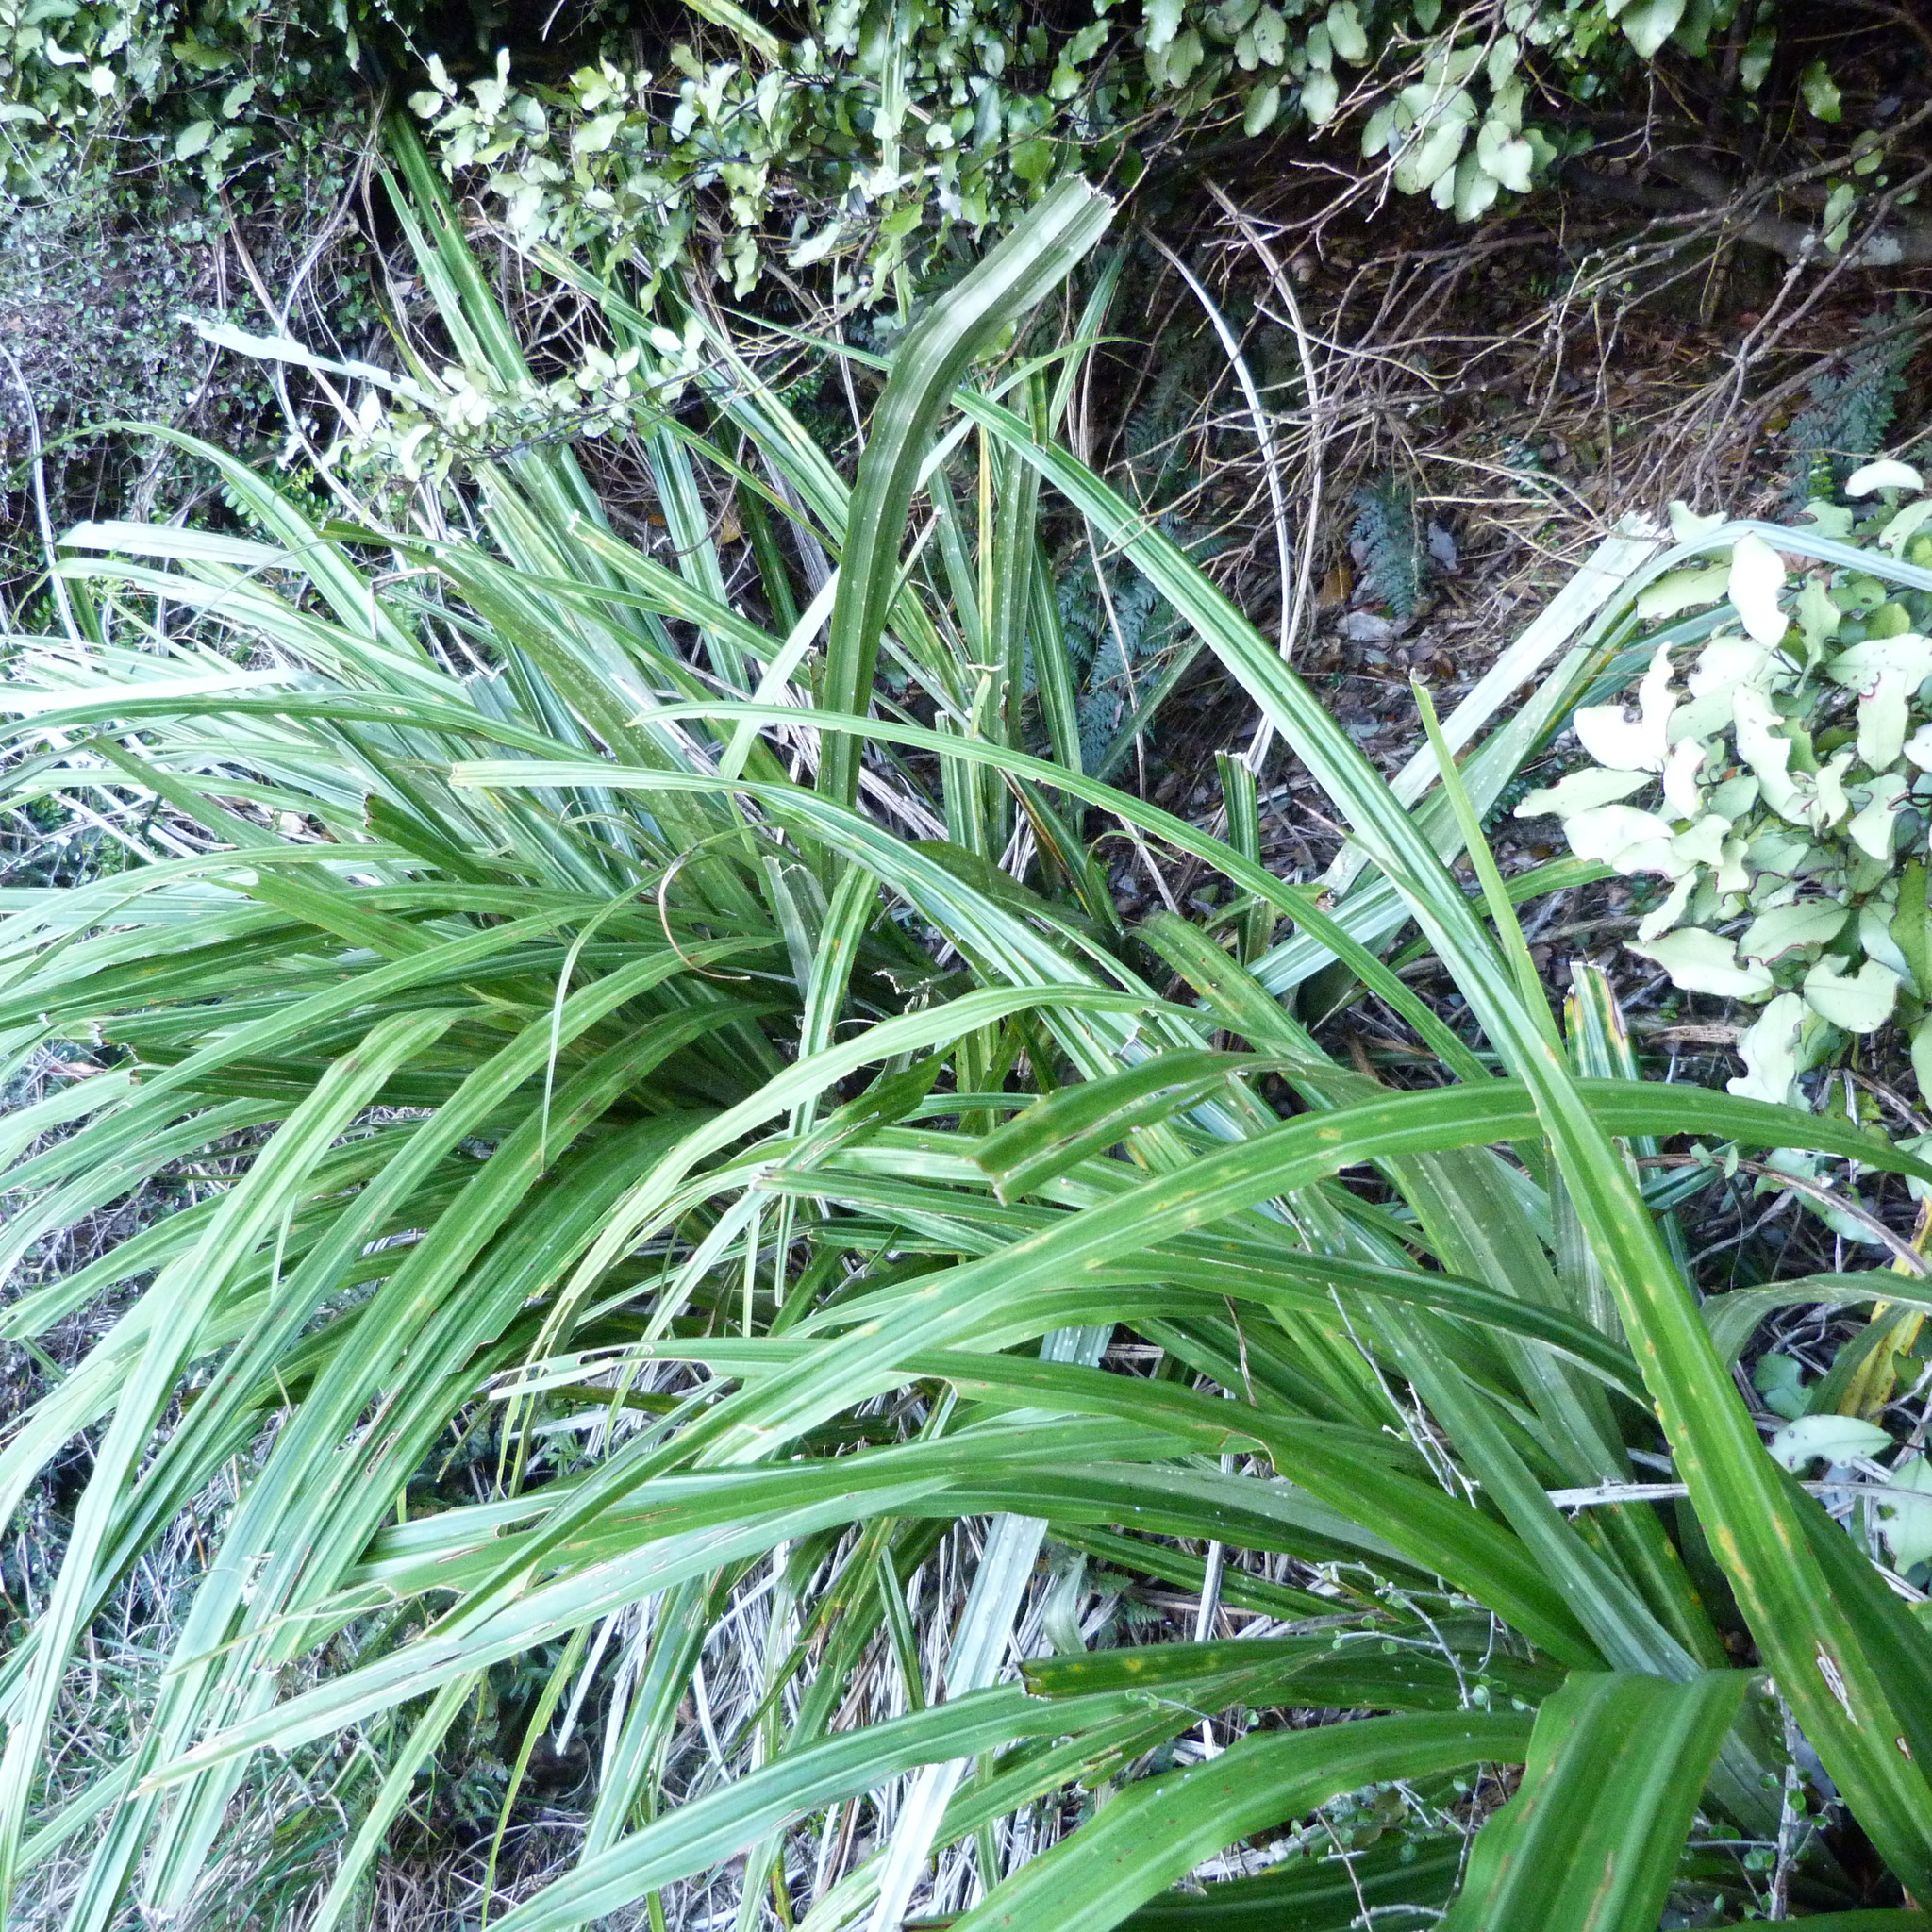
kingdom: Plantae
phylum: Tracheophyta
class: Liliopsida
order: Asparagales
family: Asteliaceae
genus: Astelia
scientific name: Astelia fragrans
